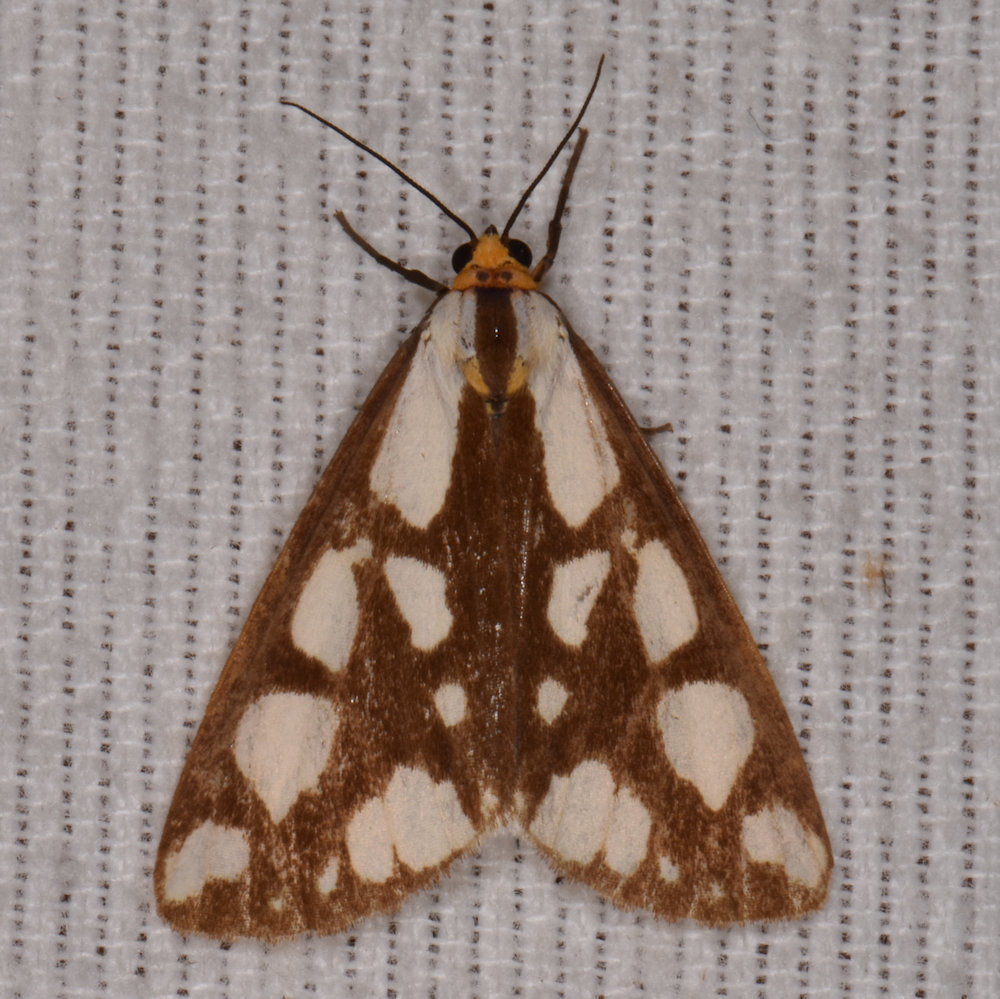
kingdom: Animalia
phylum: Arthropoda
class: Insecta
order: Lepidoptera
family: Erebidae
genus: Haploa
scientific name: Haploa confusa
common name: Confused haploa moth
